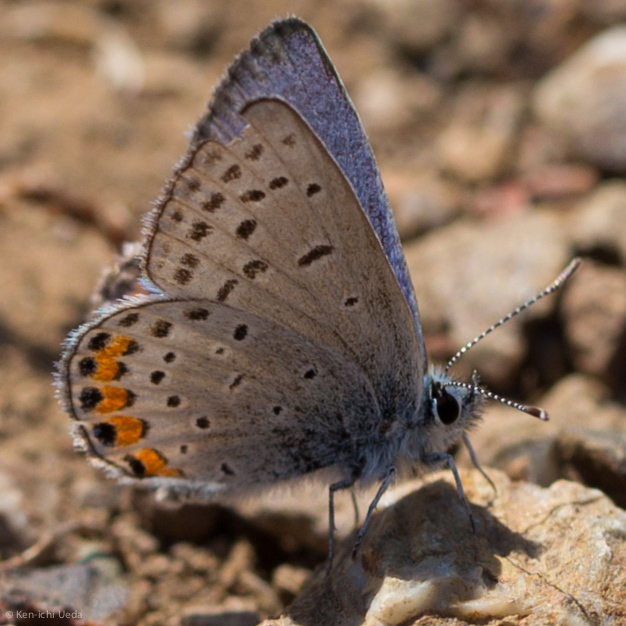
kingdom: Animalia
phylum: Arthropoda
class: Insecta
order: Lepidoptera
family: Lycaenidae
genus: Icaricia
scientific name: Icaricia acmon
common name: Acmon blue
